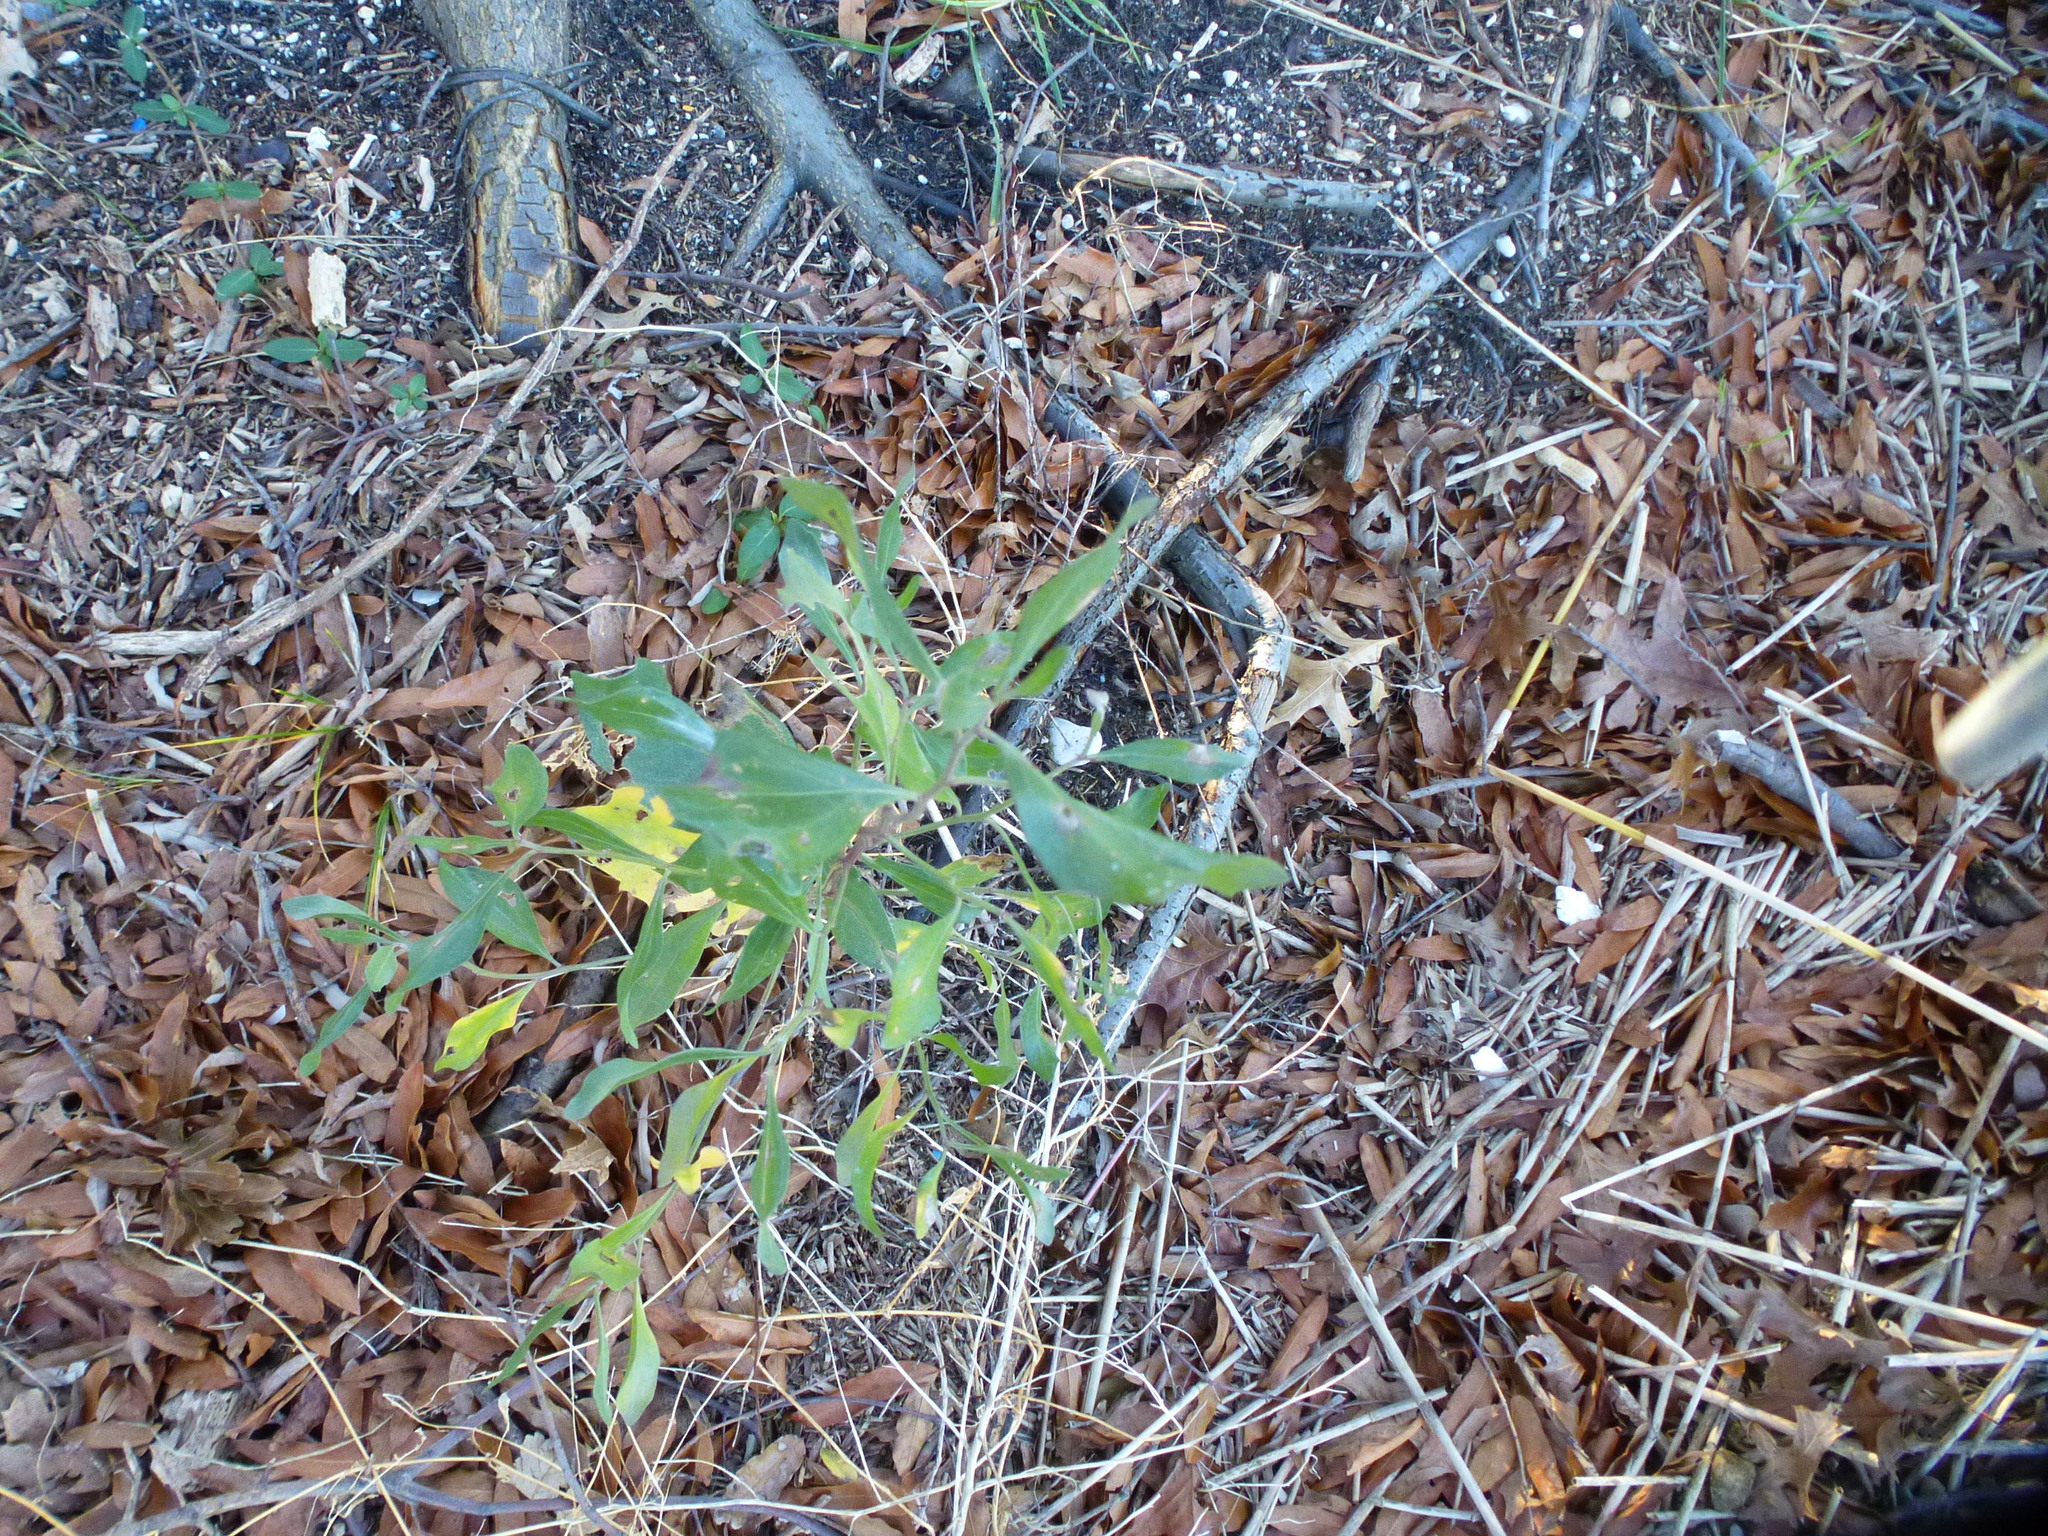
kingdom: Plantae
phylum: Tracheophyta
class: Magnoliopsida
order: Asterales
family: Asteraceae
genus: Baccharis
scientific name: Baccharis halimifolia
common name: Eastern baccharis
